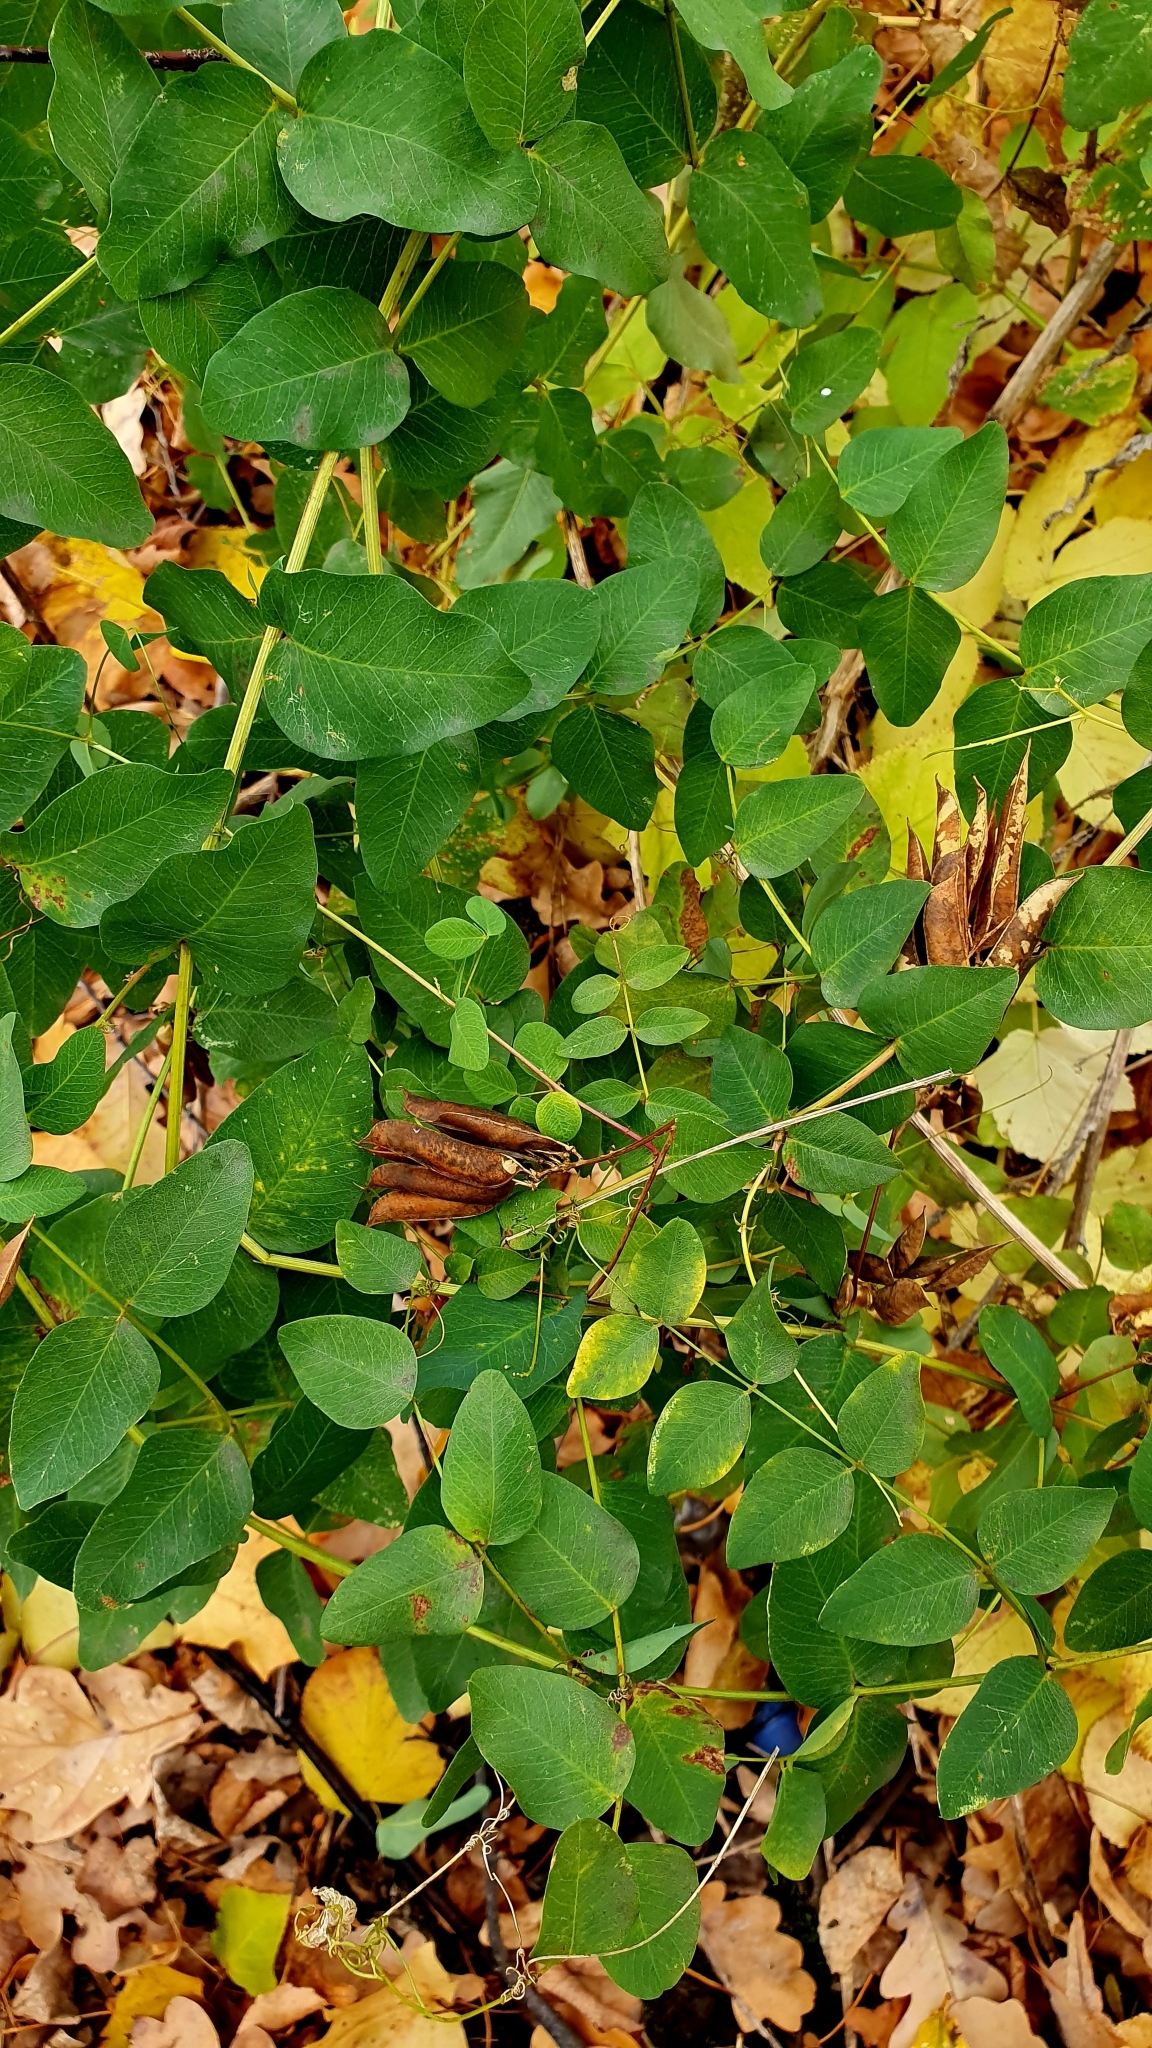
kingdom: Plantae
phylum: Tracheophyta
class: Magnoliopsida
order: Fabales
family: Fabaceae
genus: Vicia
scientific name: Vicia pisiformis
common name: Pale-flower vetch
